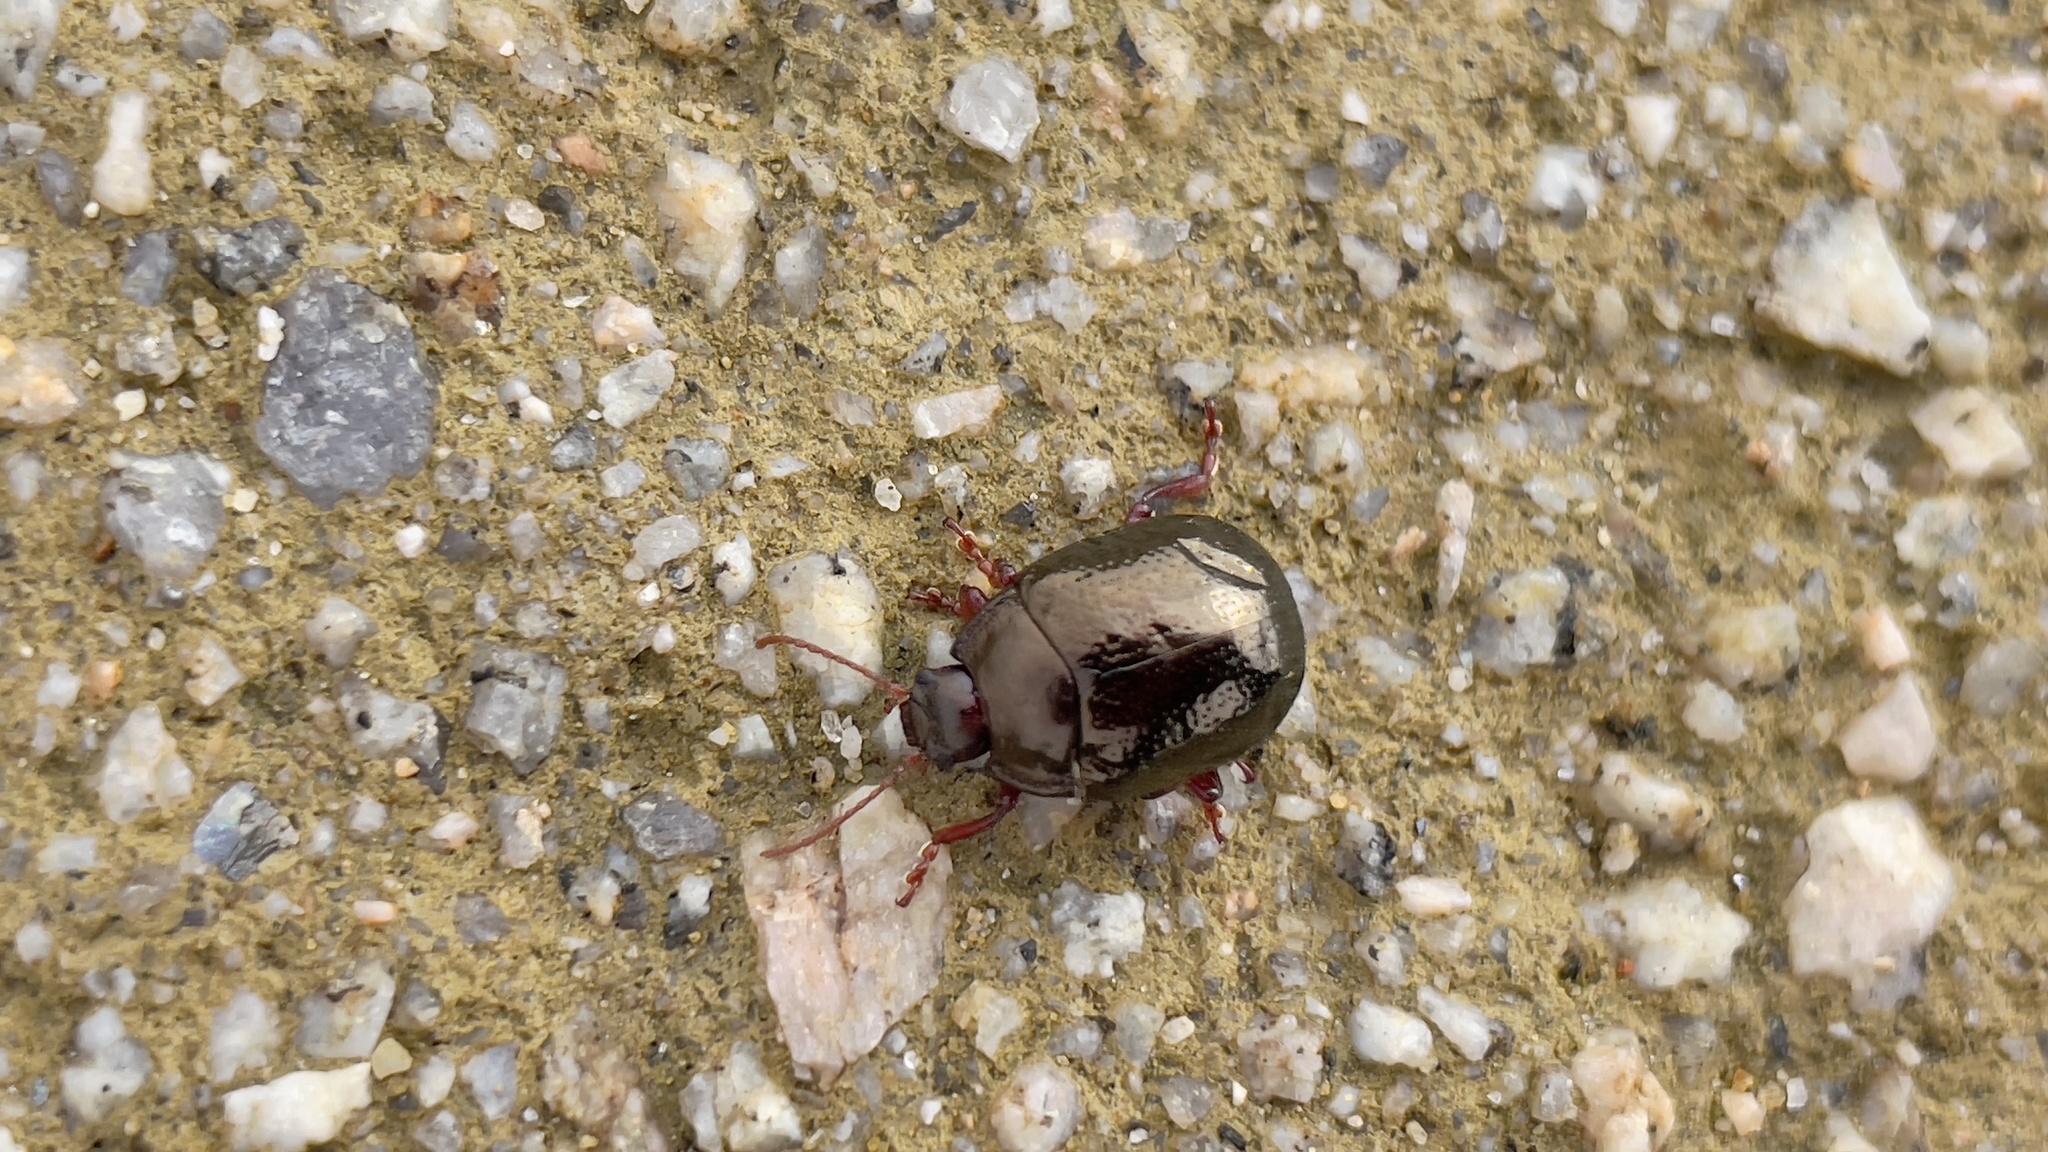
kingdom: Animalia
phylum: Arthropoda
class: Insecta
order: Coleoptera
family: Chrysomelidae
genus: Chrysolina
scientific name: Chrysolina bankii
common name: Leaf beetle
